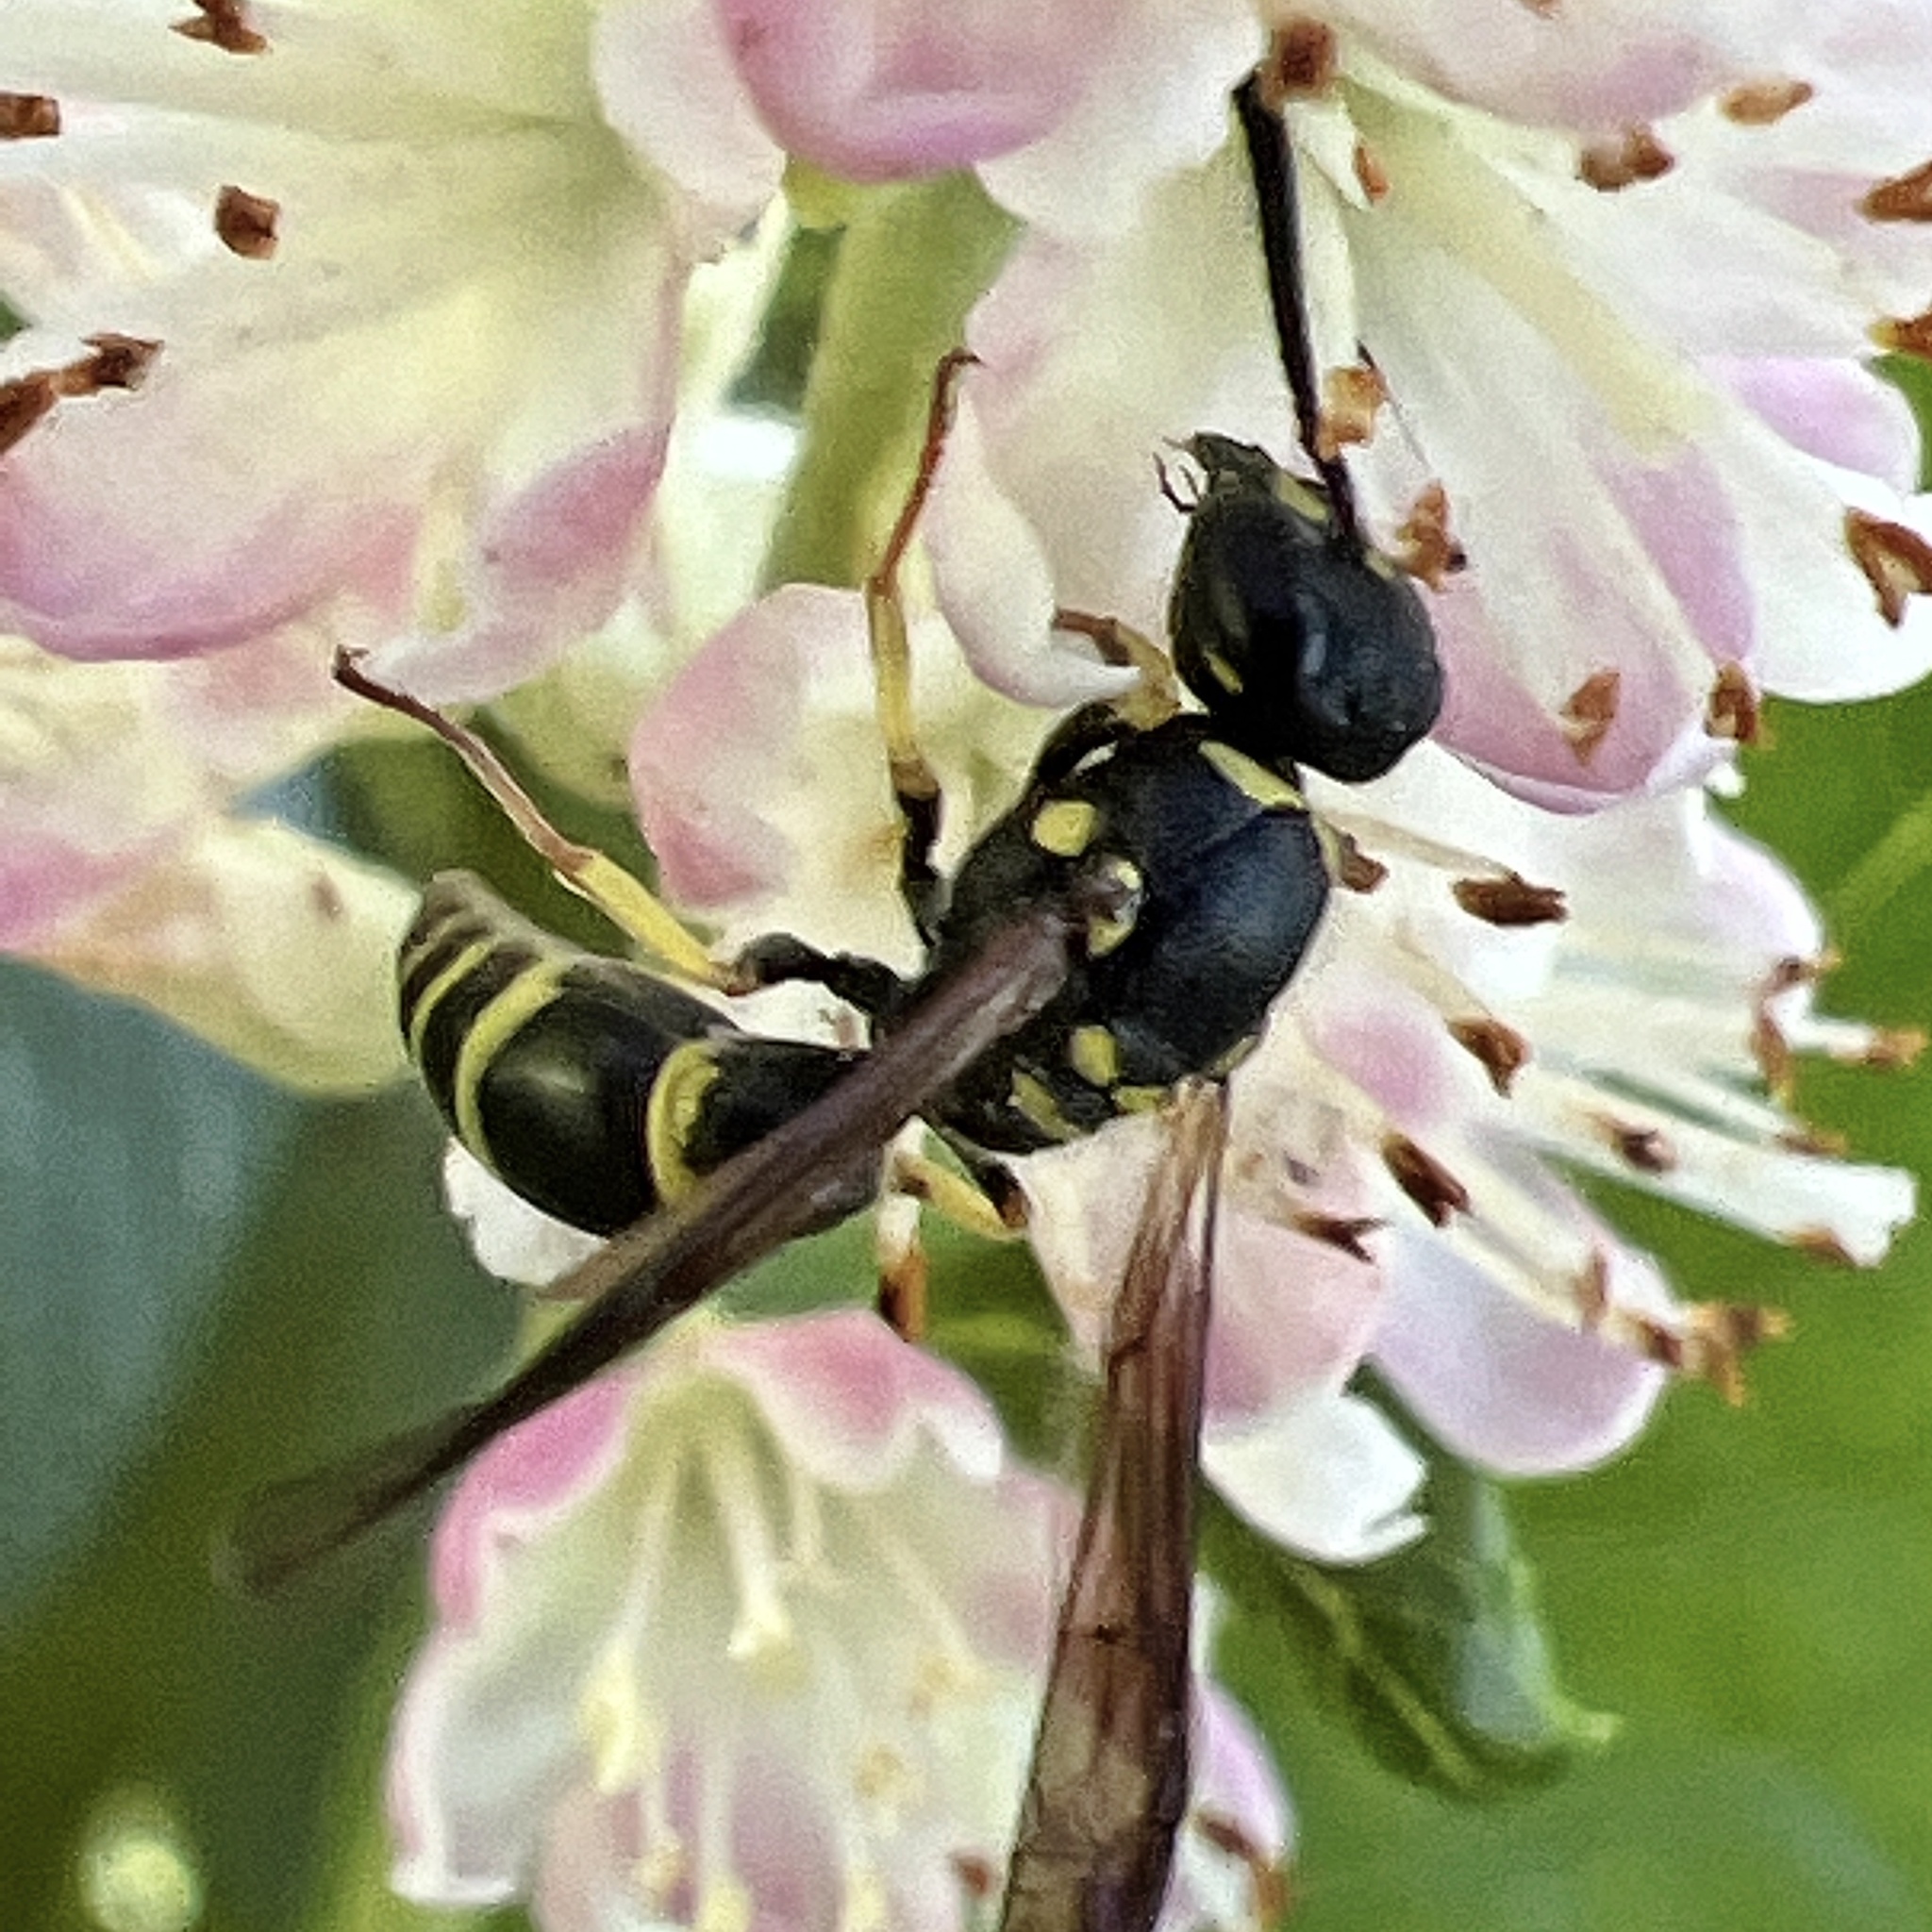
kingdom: Animalia
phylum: Arthropoda
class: Insecta
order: Hymenoptera
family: Vespidae
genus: Ancistrocerus
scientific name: Ancistrocerus adiabatus
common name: Bramble mason wasp
